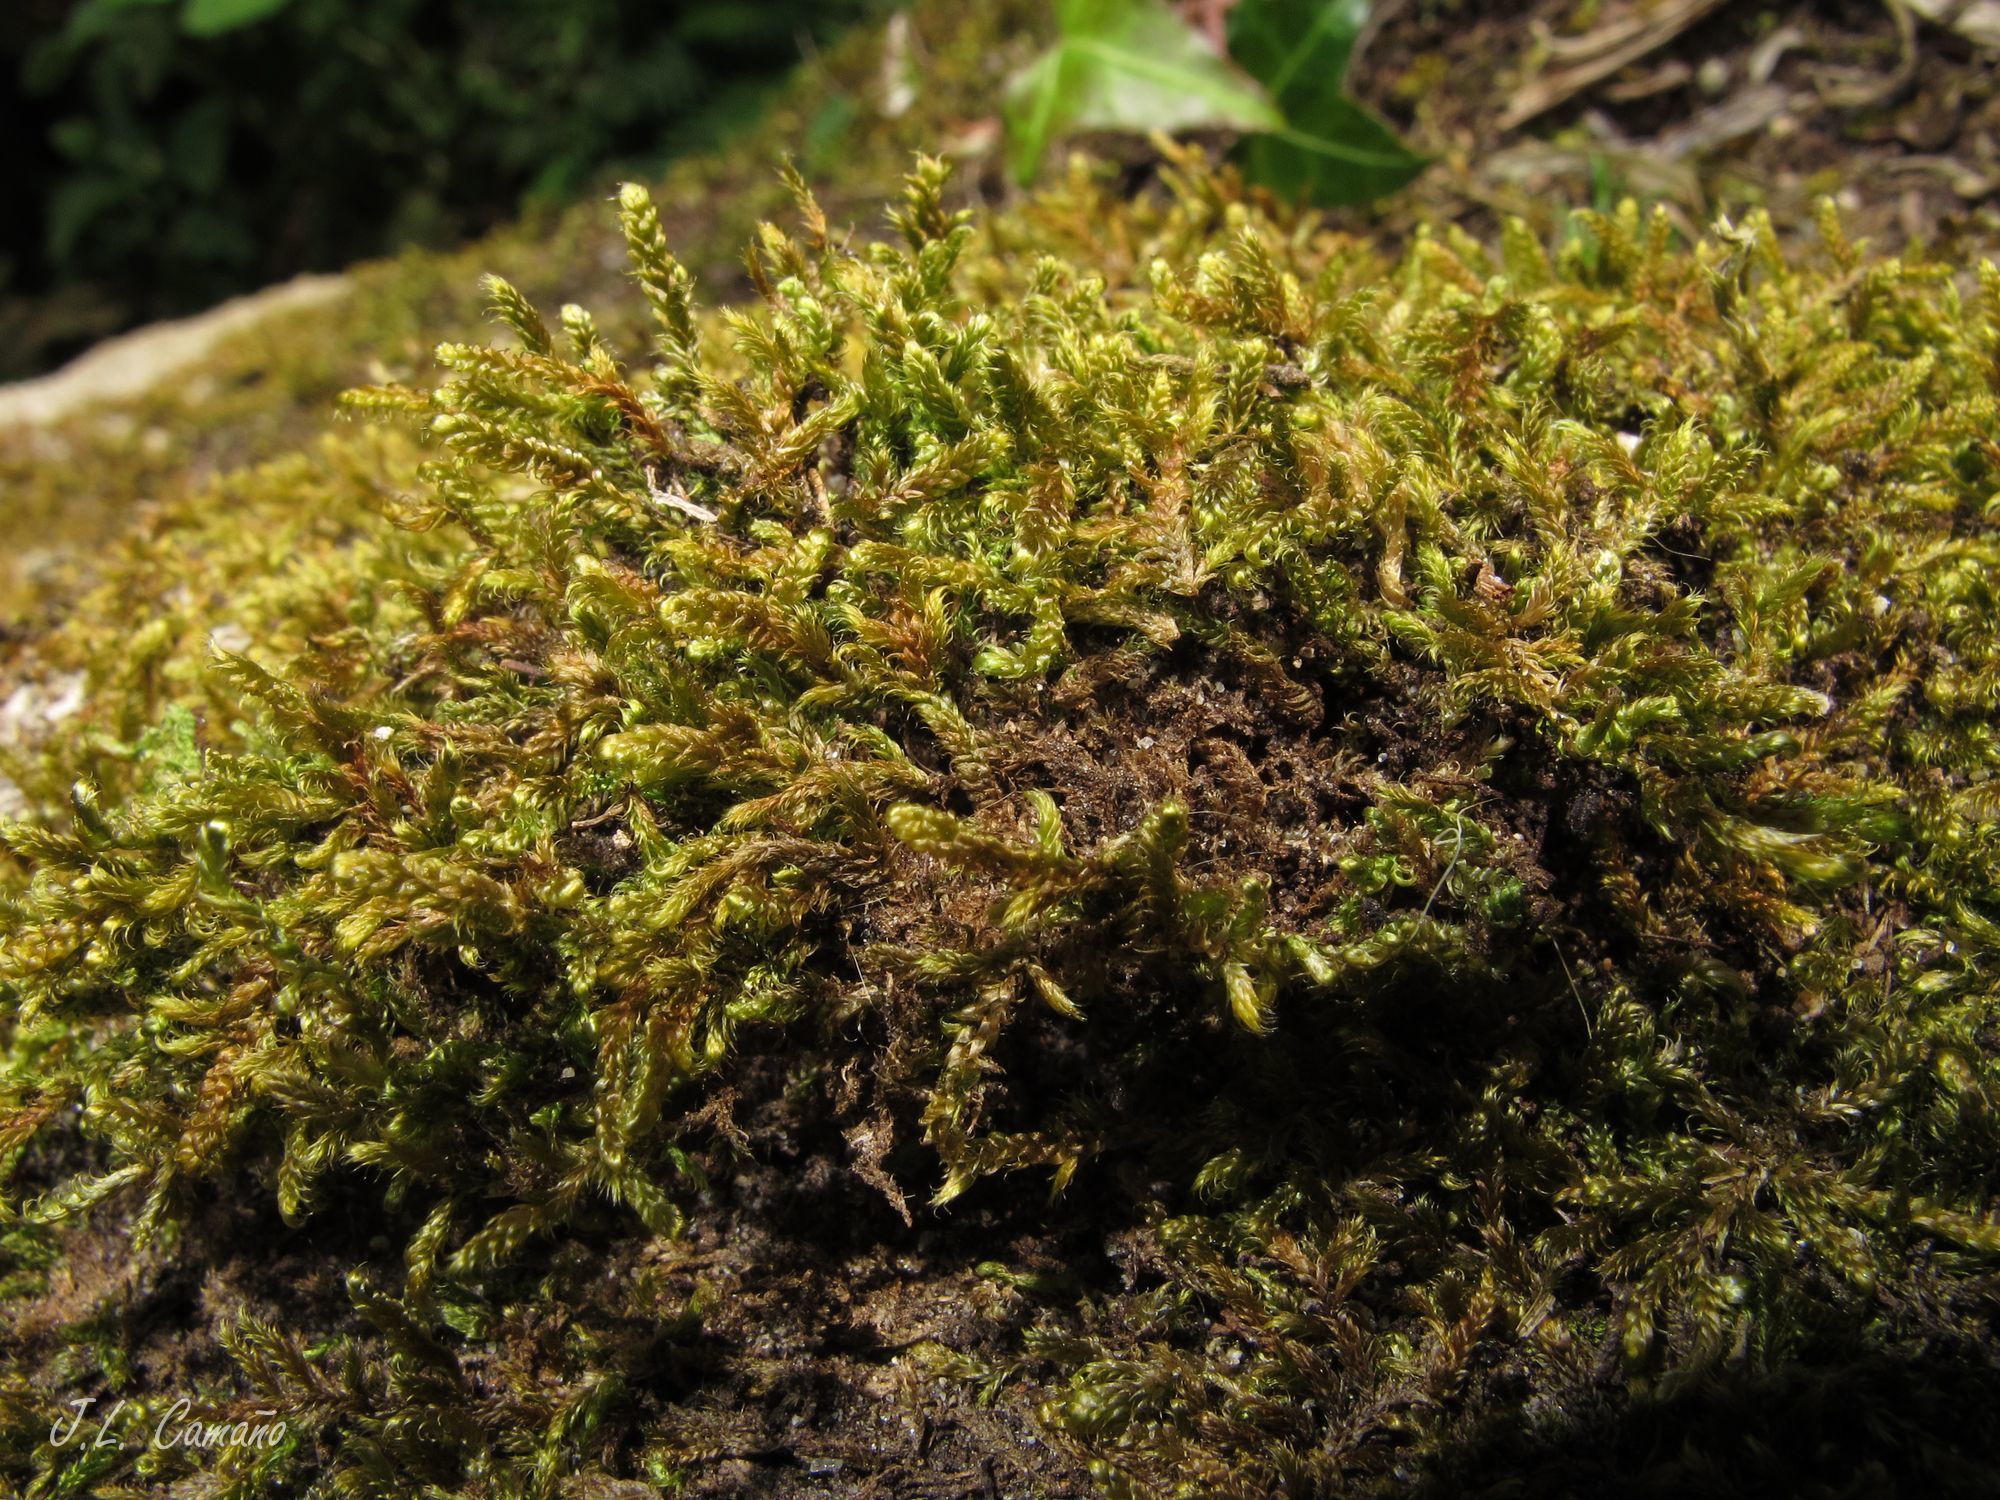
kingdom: Plantae
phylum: Bryophyta
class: Bryopsida
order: Hypnales
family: Hypnaceae
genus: Hypnum
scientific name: Hypnum cupressiforme
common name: Cypress-leaved plait-moss
